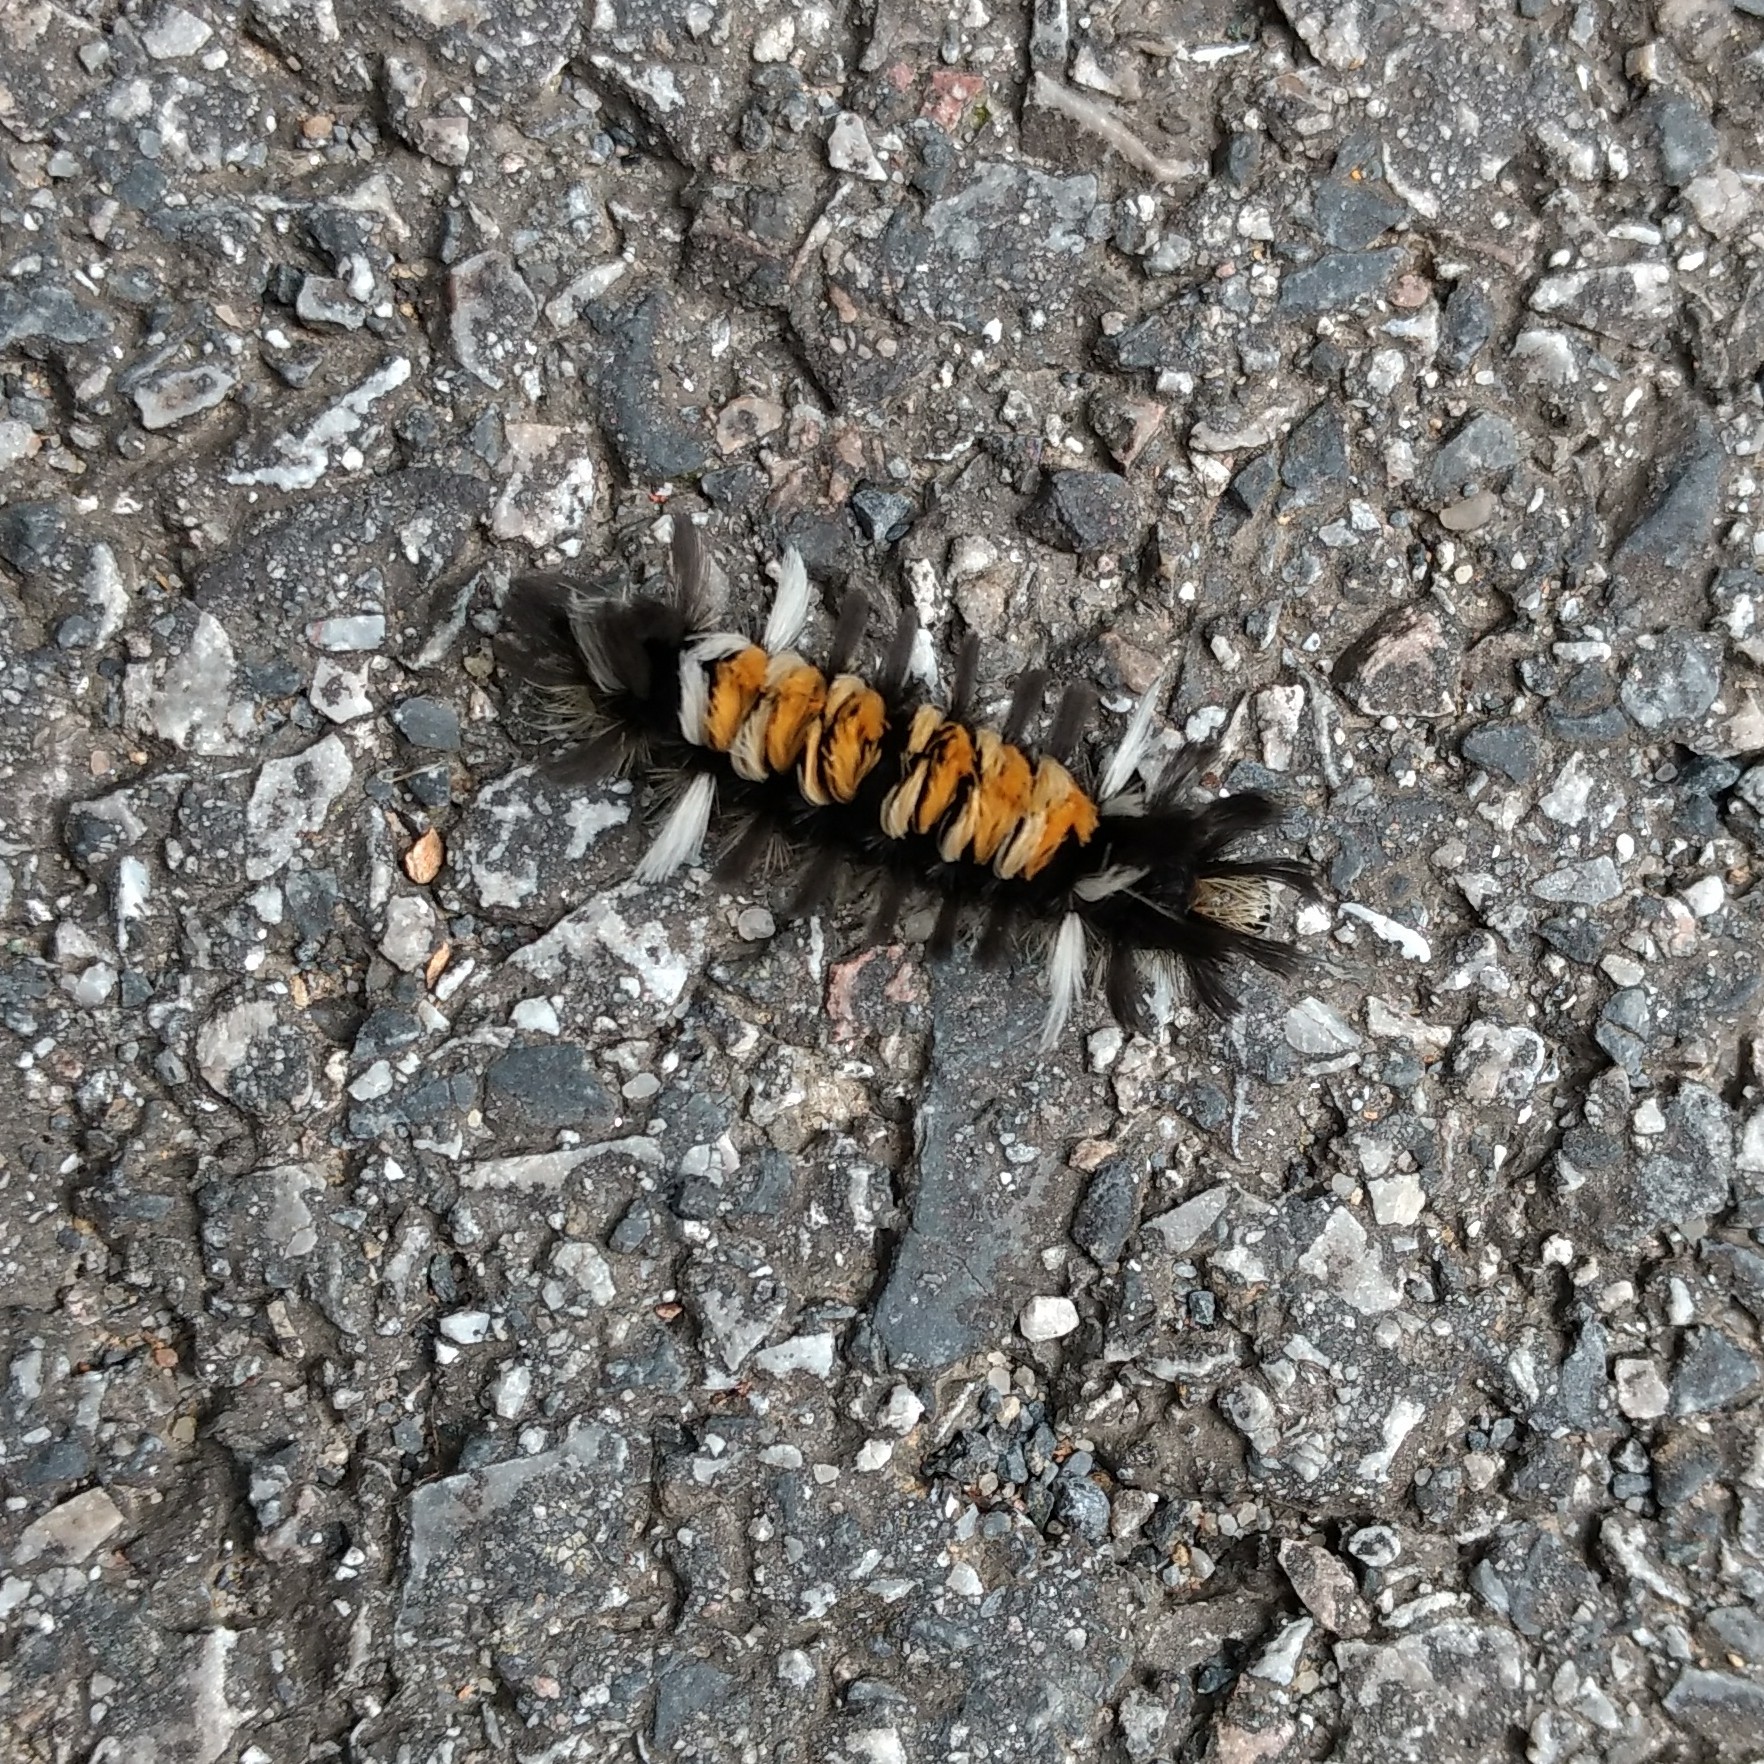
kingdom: Animalia
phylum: Arthropoda
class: Insecta
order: Lepidoptera
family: Erebidae
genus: Euchaetes
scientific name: Euchaetes egle
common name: Milkweed tussock moth
